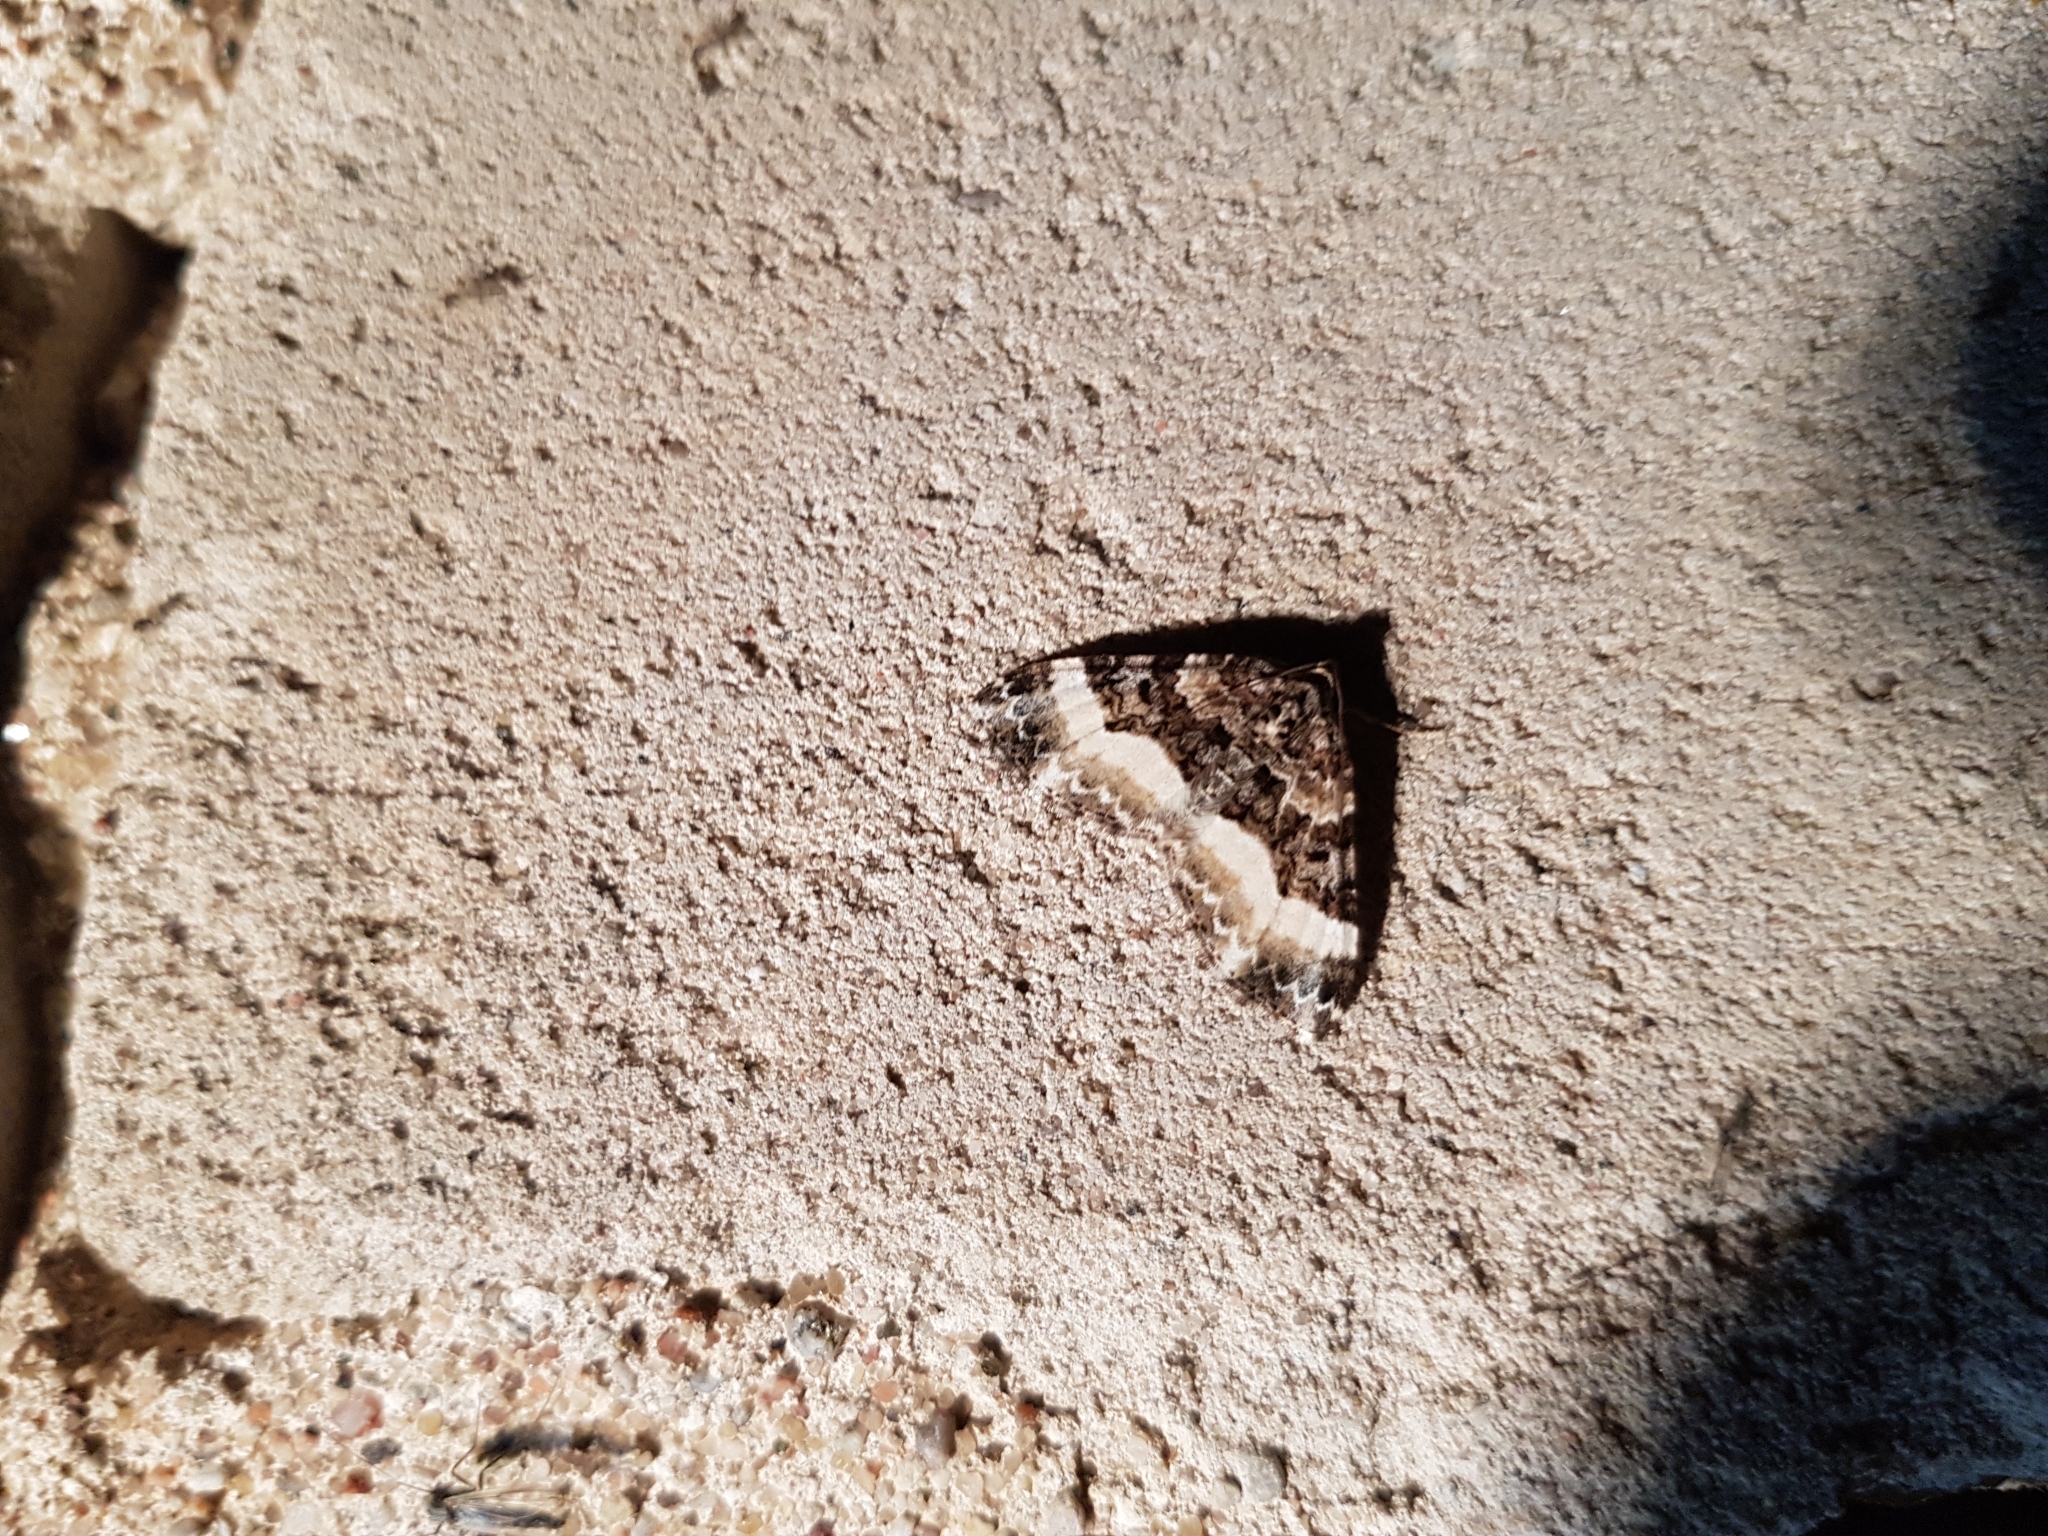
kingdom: Animalia
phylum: Arthropoda
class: Insecta
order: Lepidoptera
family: Geometridae
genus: Euphyia
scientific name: Euphyia unangulata
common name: Sharp-angled carpet
